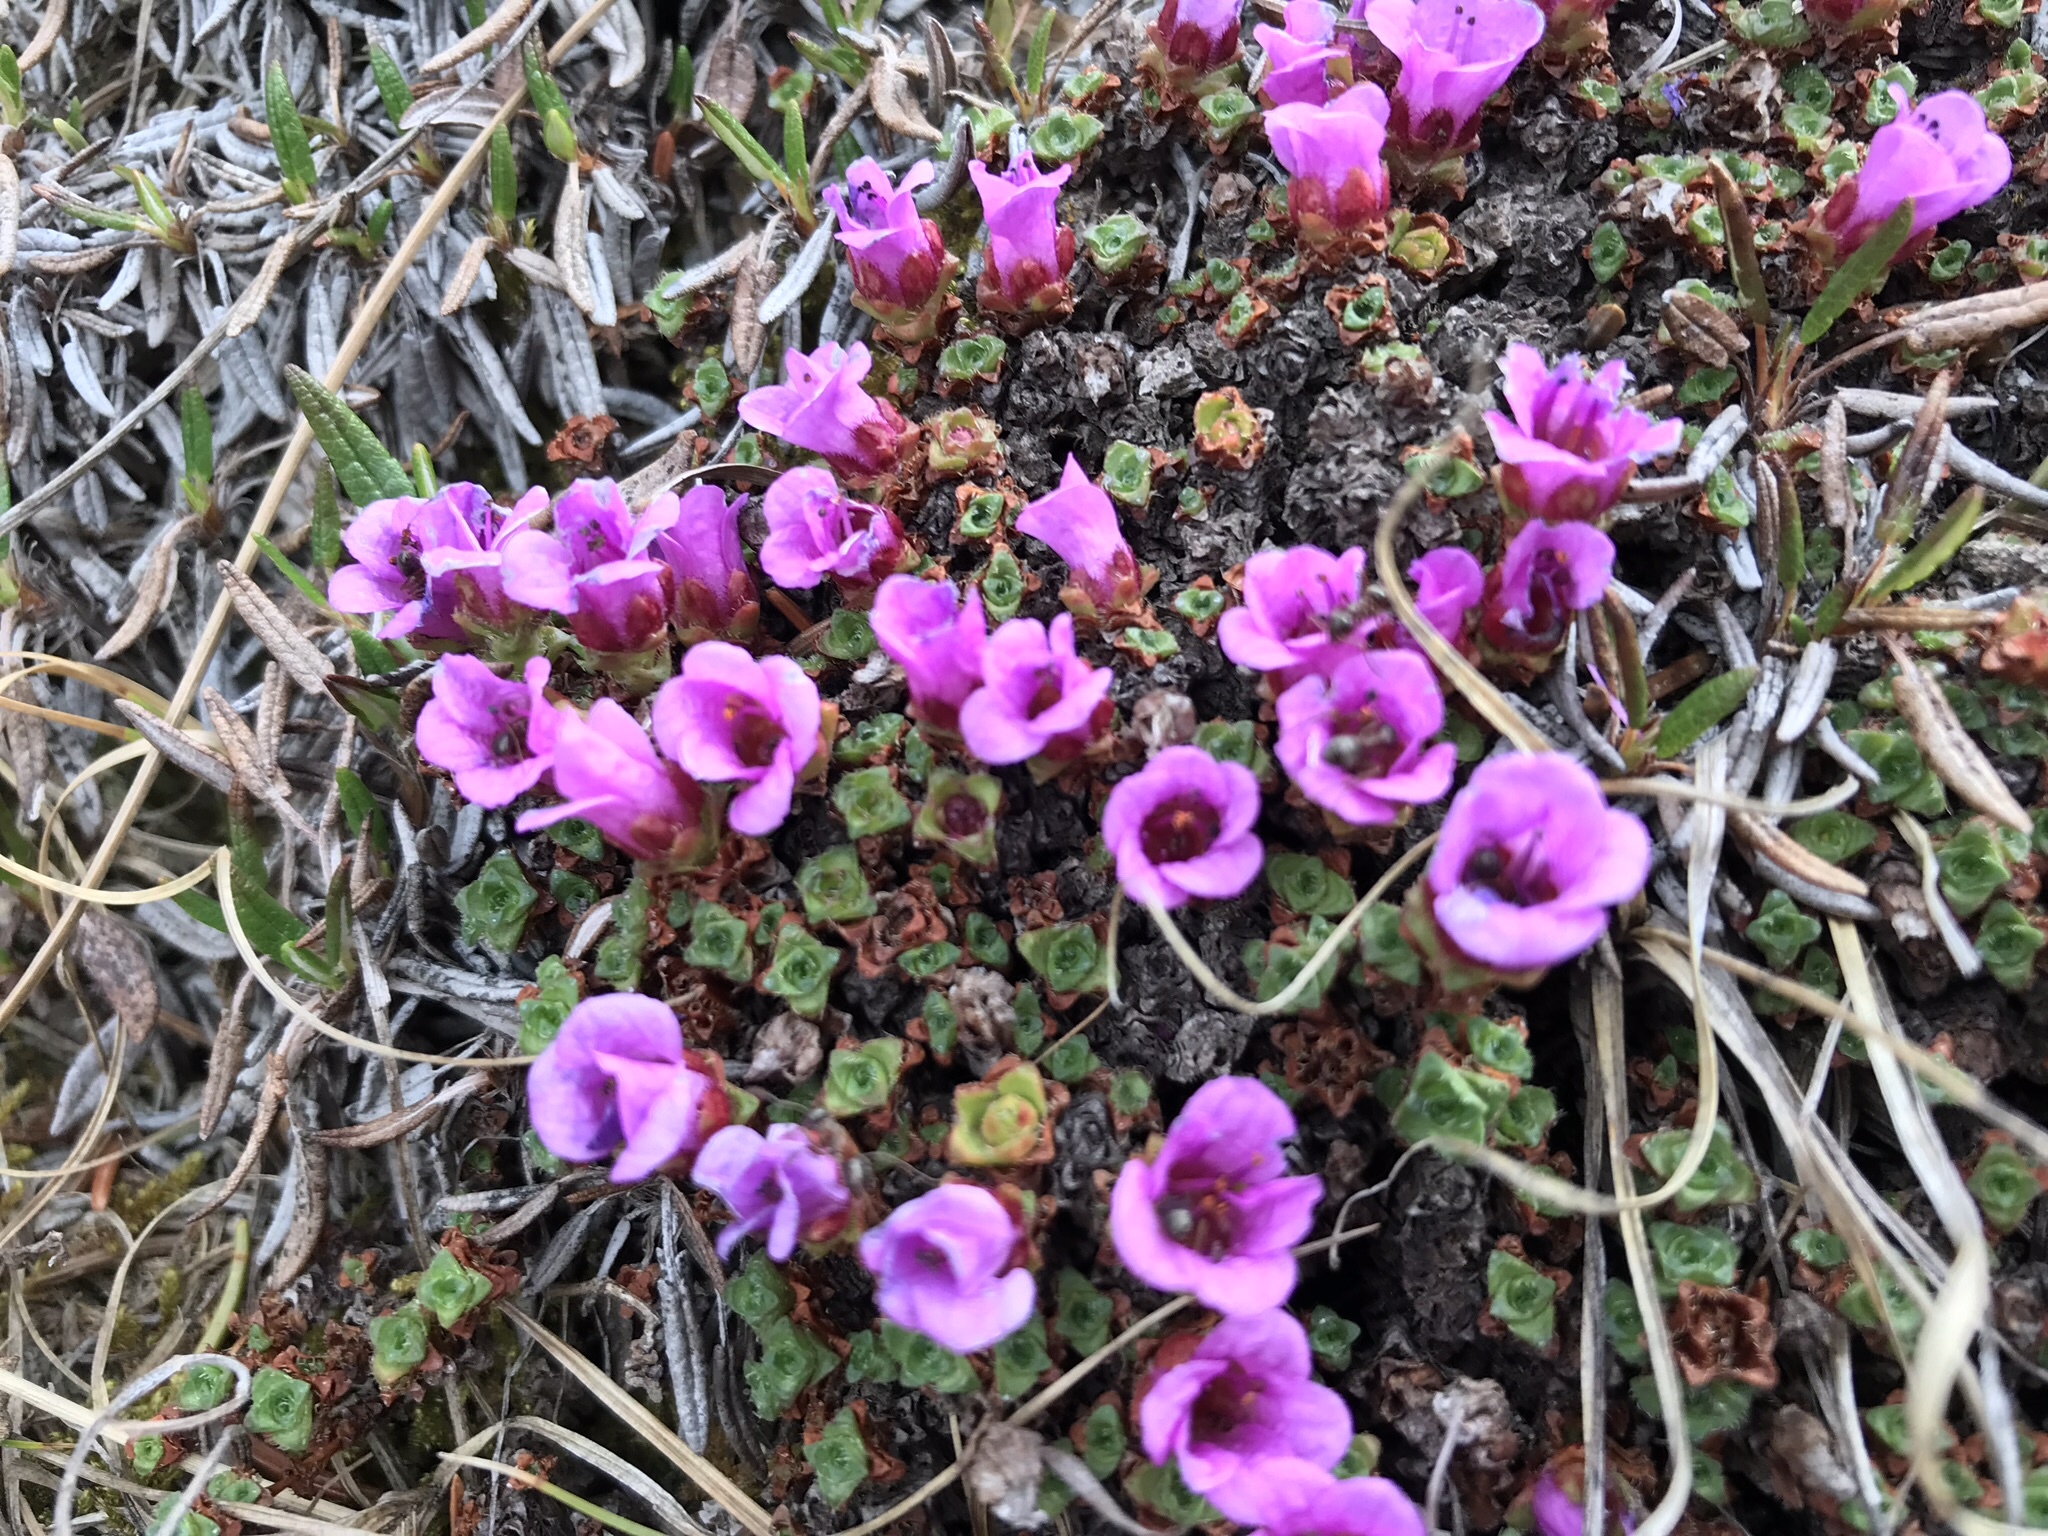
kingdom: Plantae
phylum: Tracheophyta
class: Magnoliopsida
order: Saxifragales
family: Saxifragaceae
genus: Saxifraga
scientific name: Saxifraga oppositifolia
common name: Purple saxifrage
